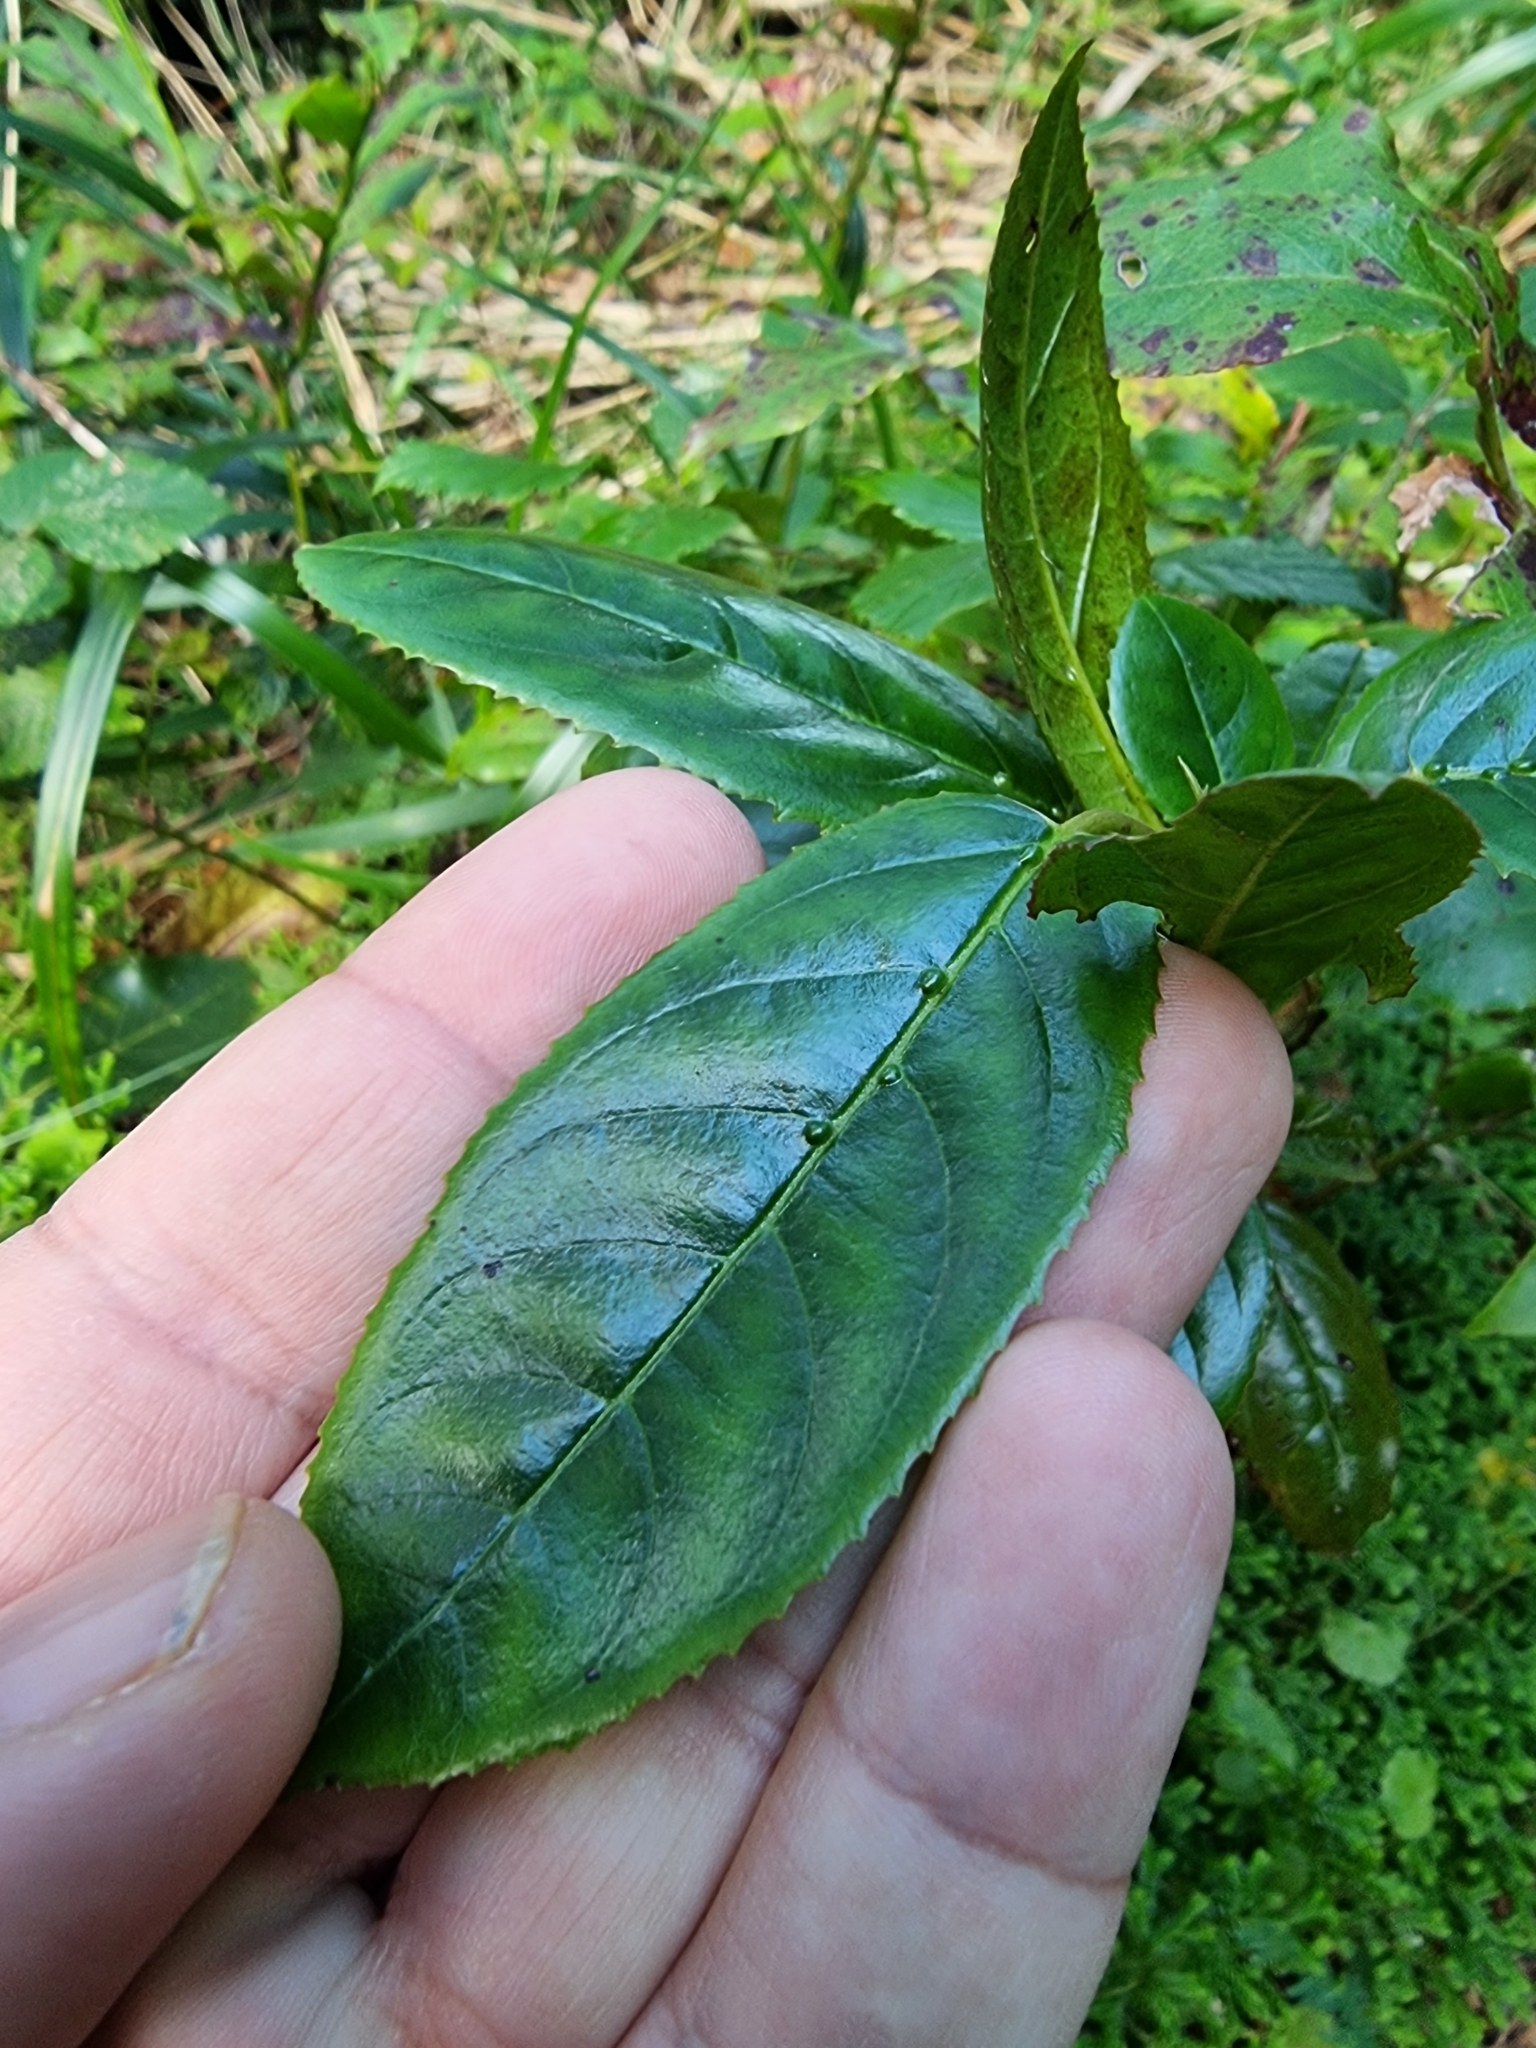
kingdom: Plantae
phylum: Tracheophyta
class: Magnoliopsida
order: Rosales
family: Rhamnaceae
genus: Rhamnus
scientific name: Rhamnus glandulosa
